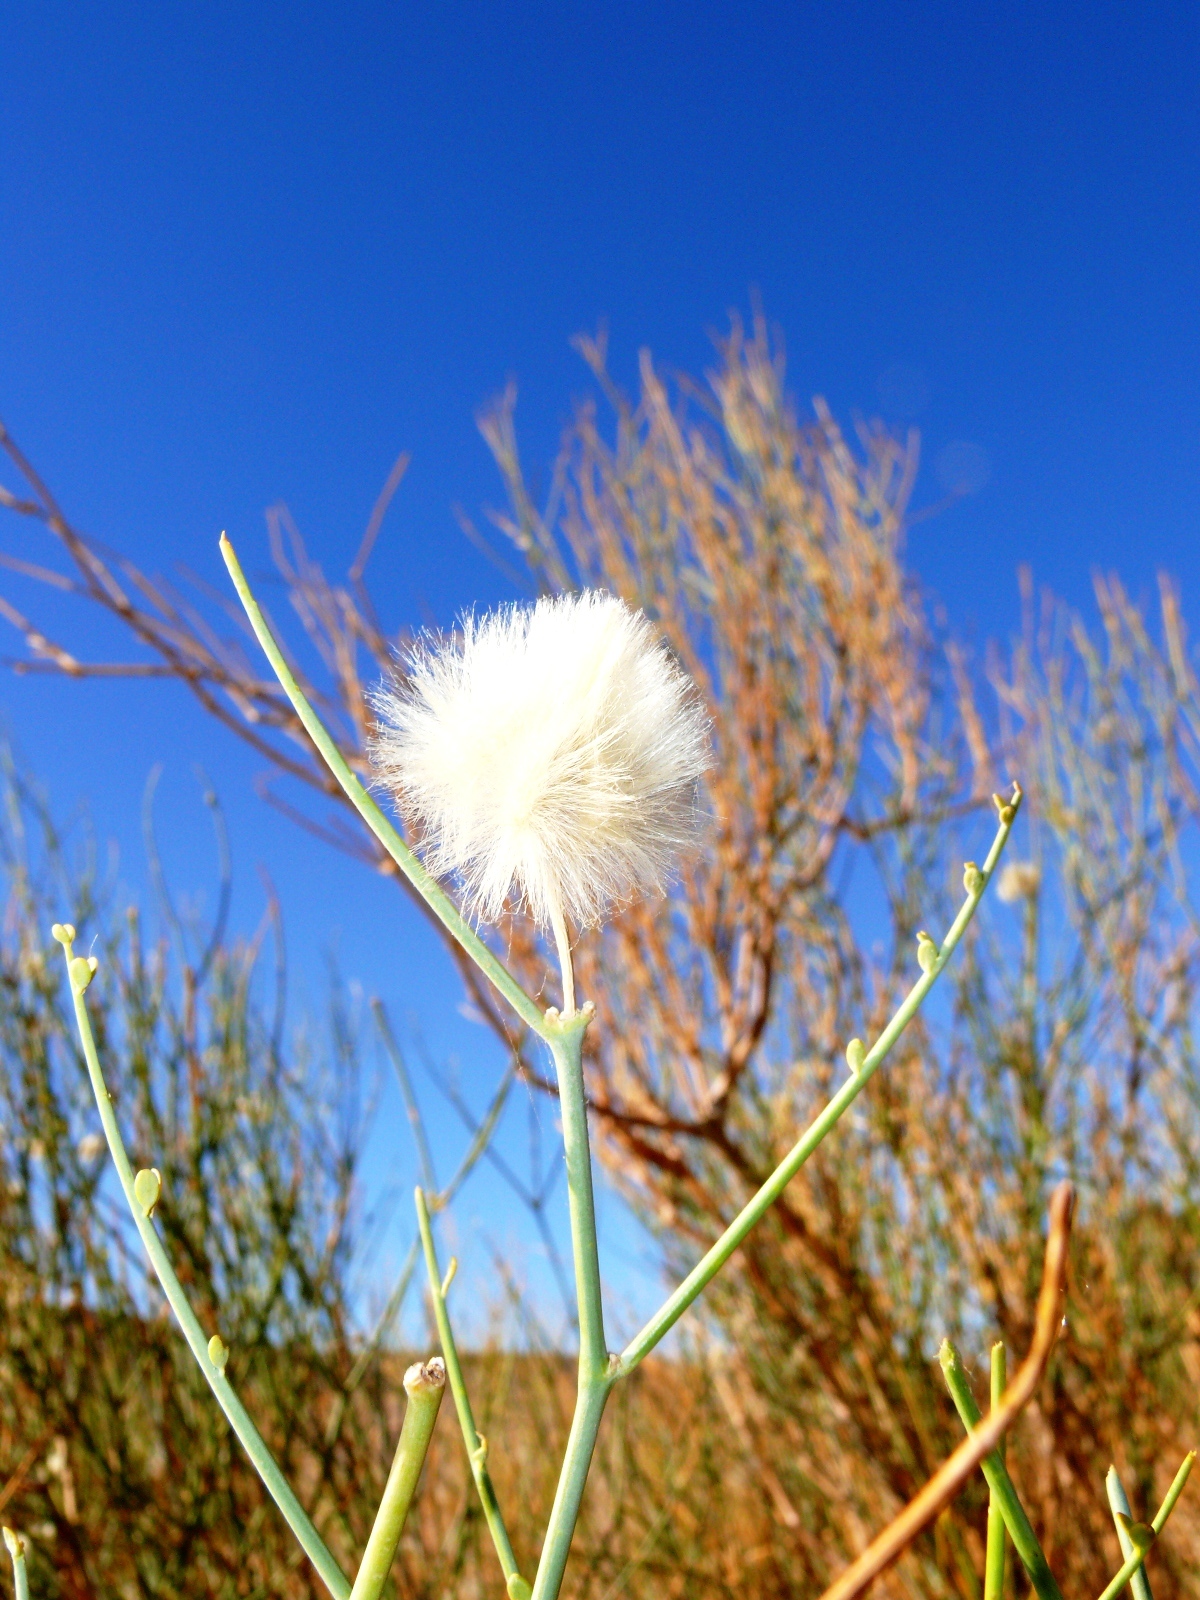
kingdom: Plantae
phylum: Tracheophyta
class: Magnoliopsida
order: Zygophyllales
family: Zygophyllaceae
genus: Sisyndite
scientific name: Sisyndite spartea
